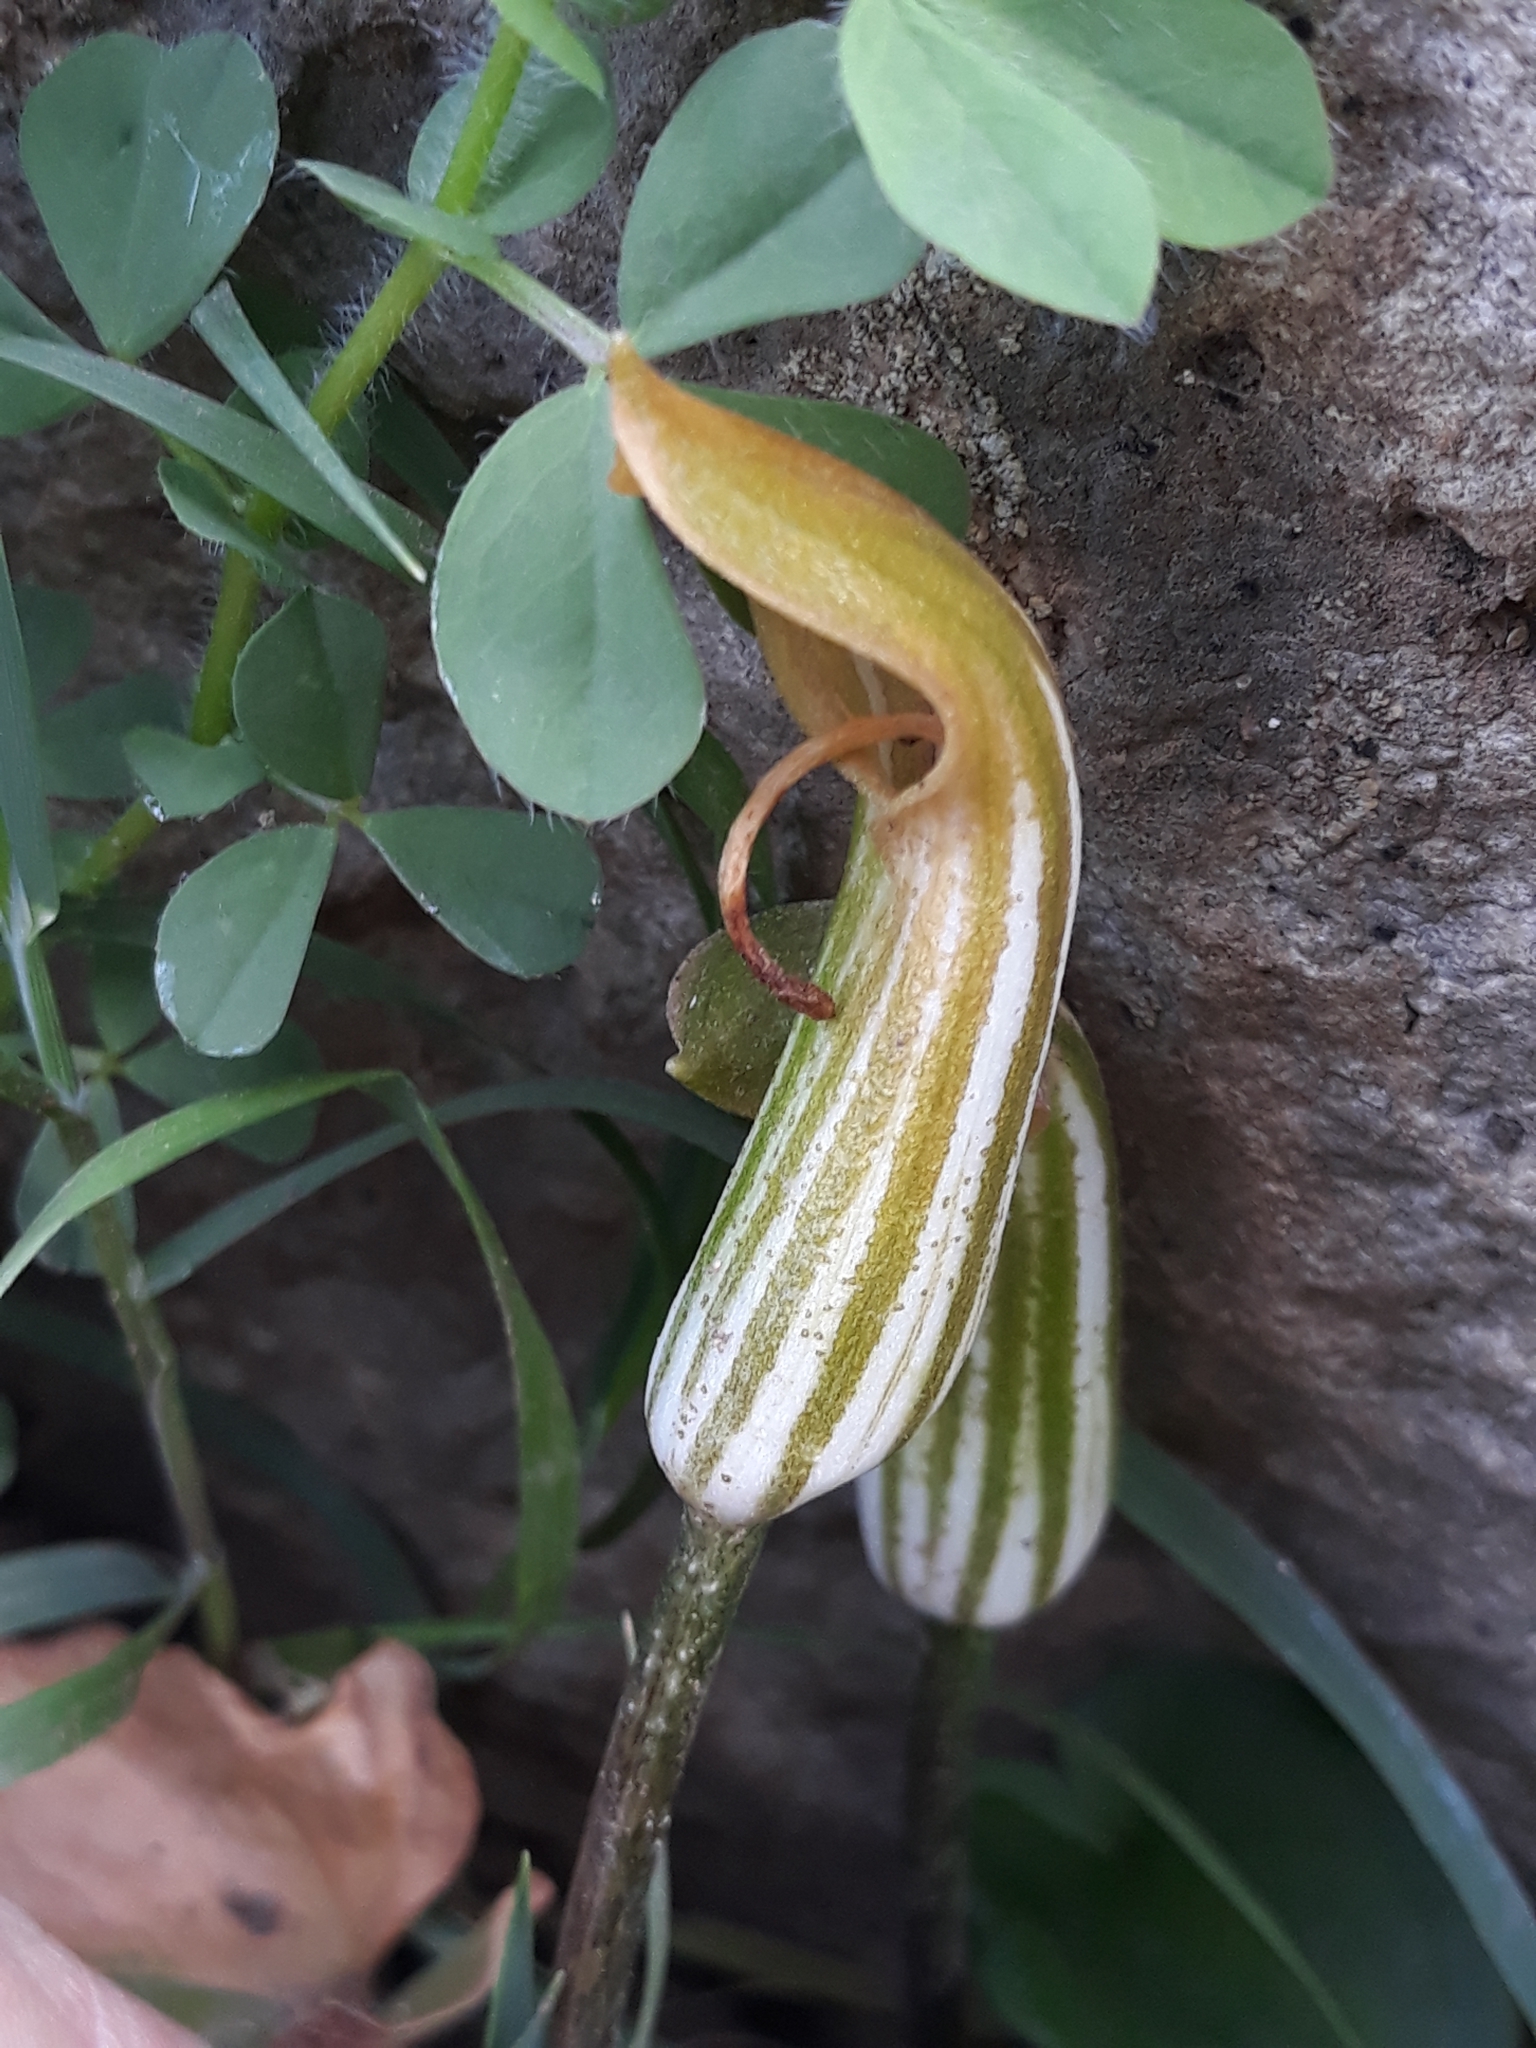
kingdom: Plantae
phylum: Tracheophyta
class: Liliopsida
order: Alismatales
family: Araceae
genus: Arisarum
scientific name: Arisarum vulgare
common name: Common arisarum
